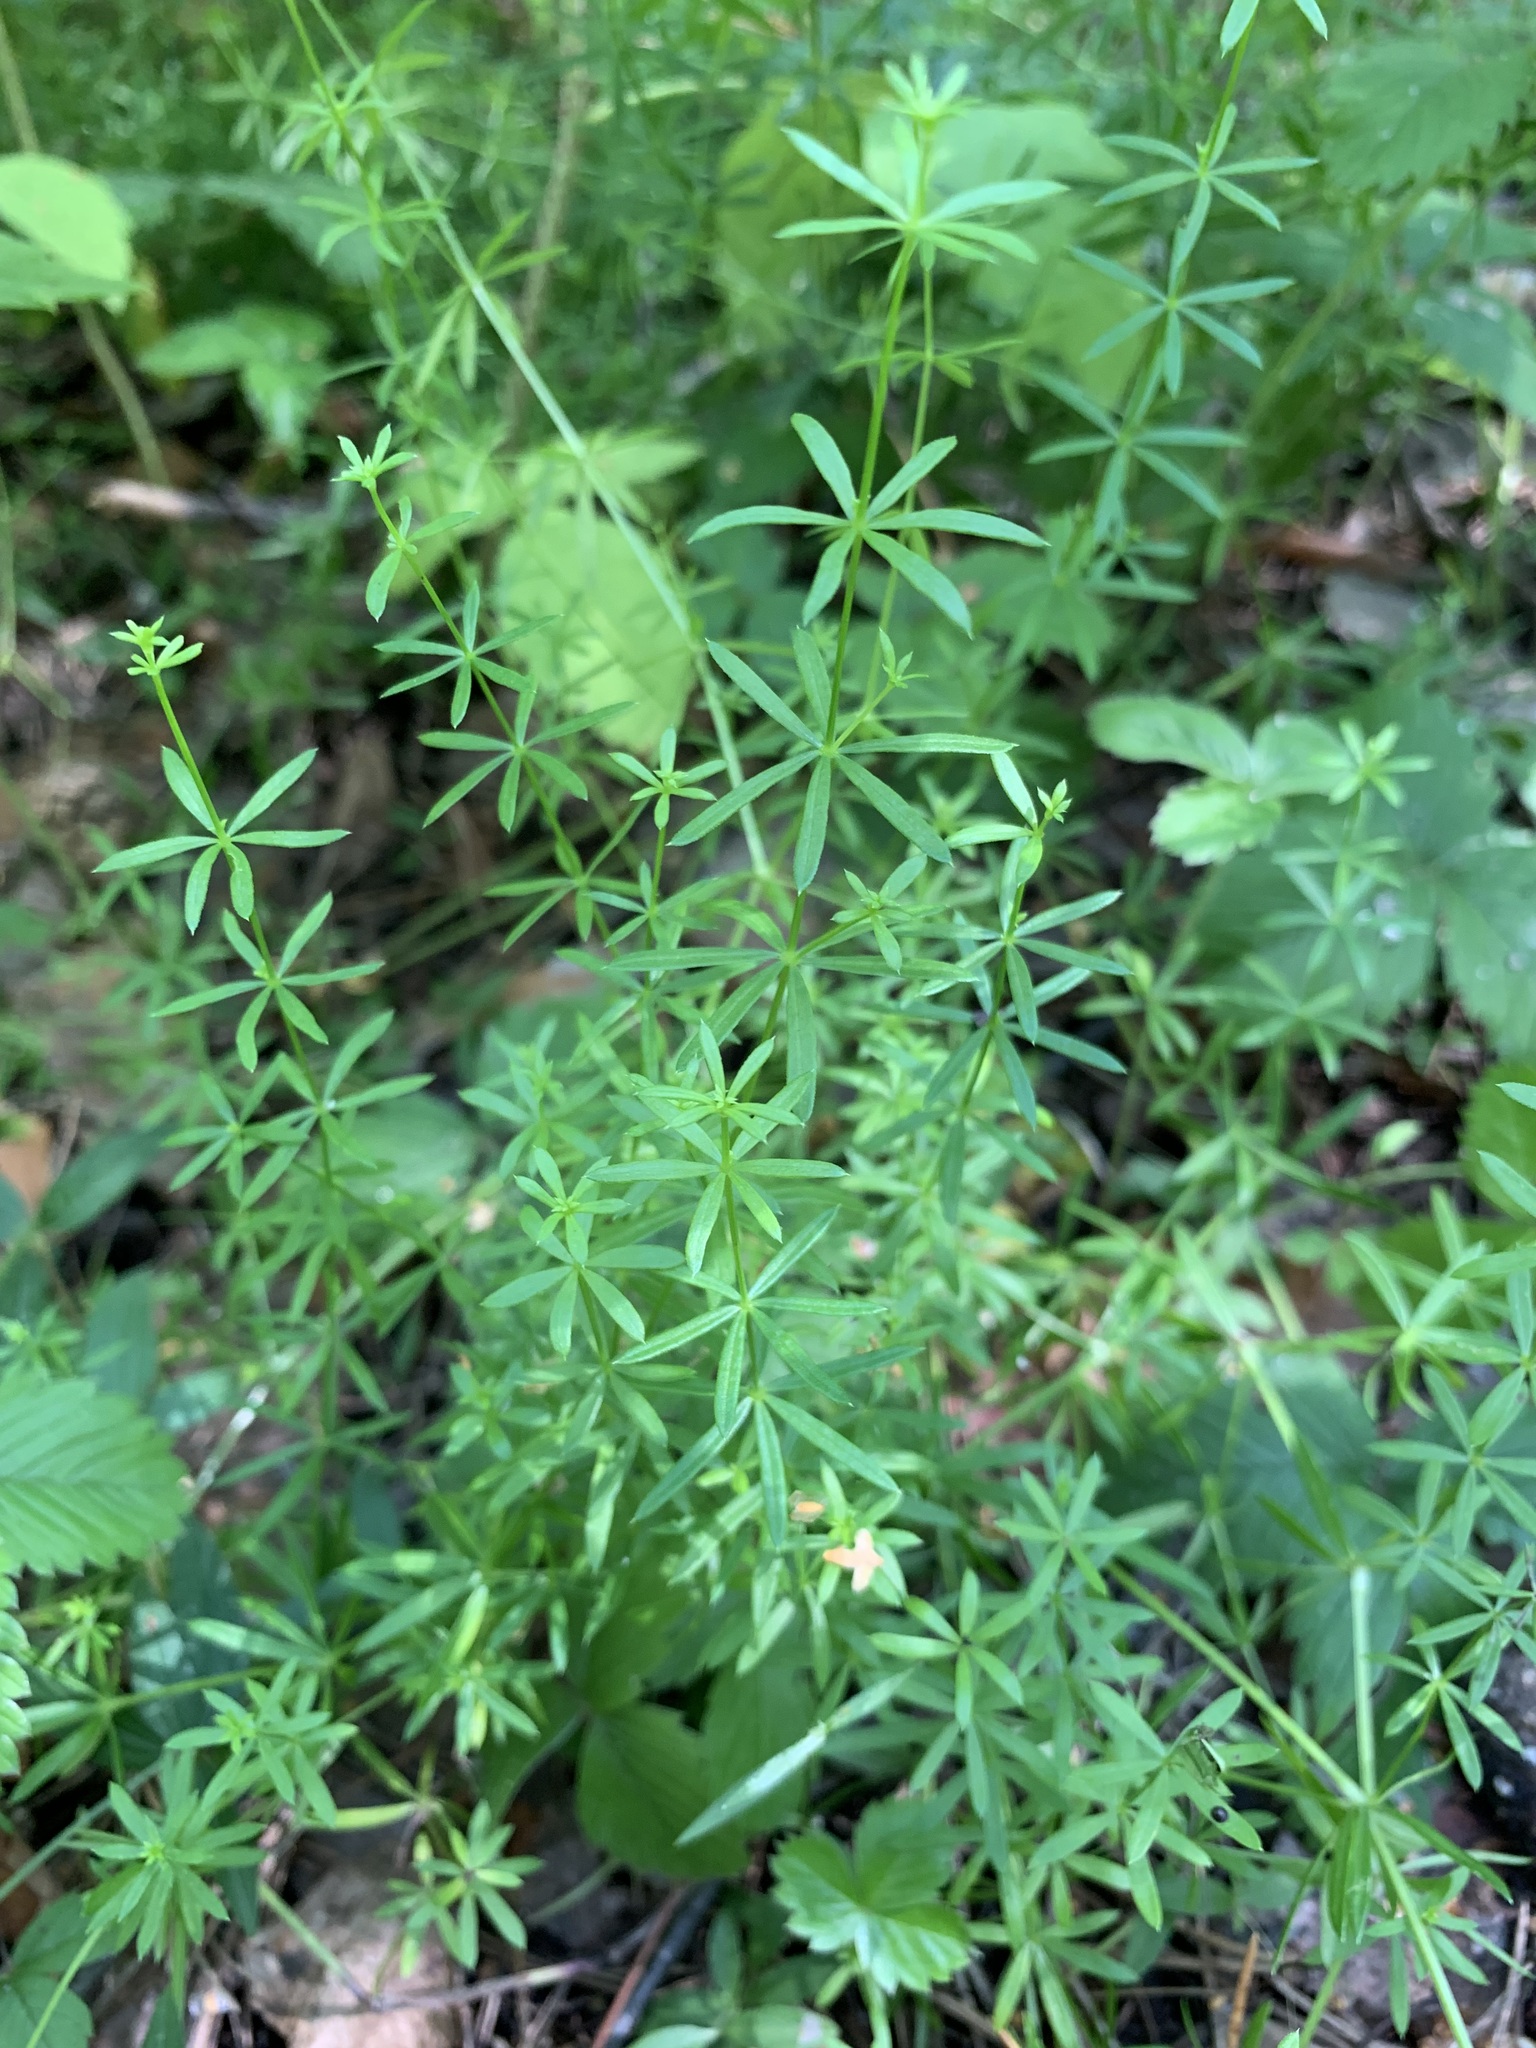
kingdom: Plantae
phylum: Tracheophyta
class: Magnoliopsida
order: Gentianales
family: Rubiaceae
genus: Galium
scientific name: Galium mollugo
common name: Hedge bedstraw
